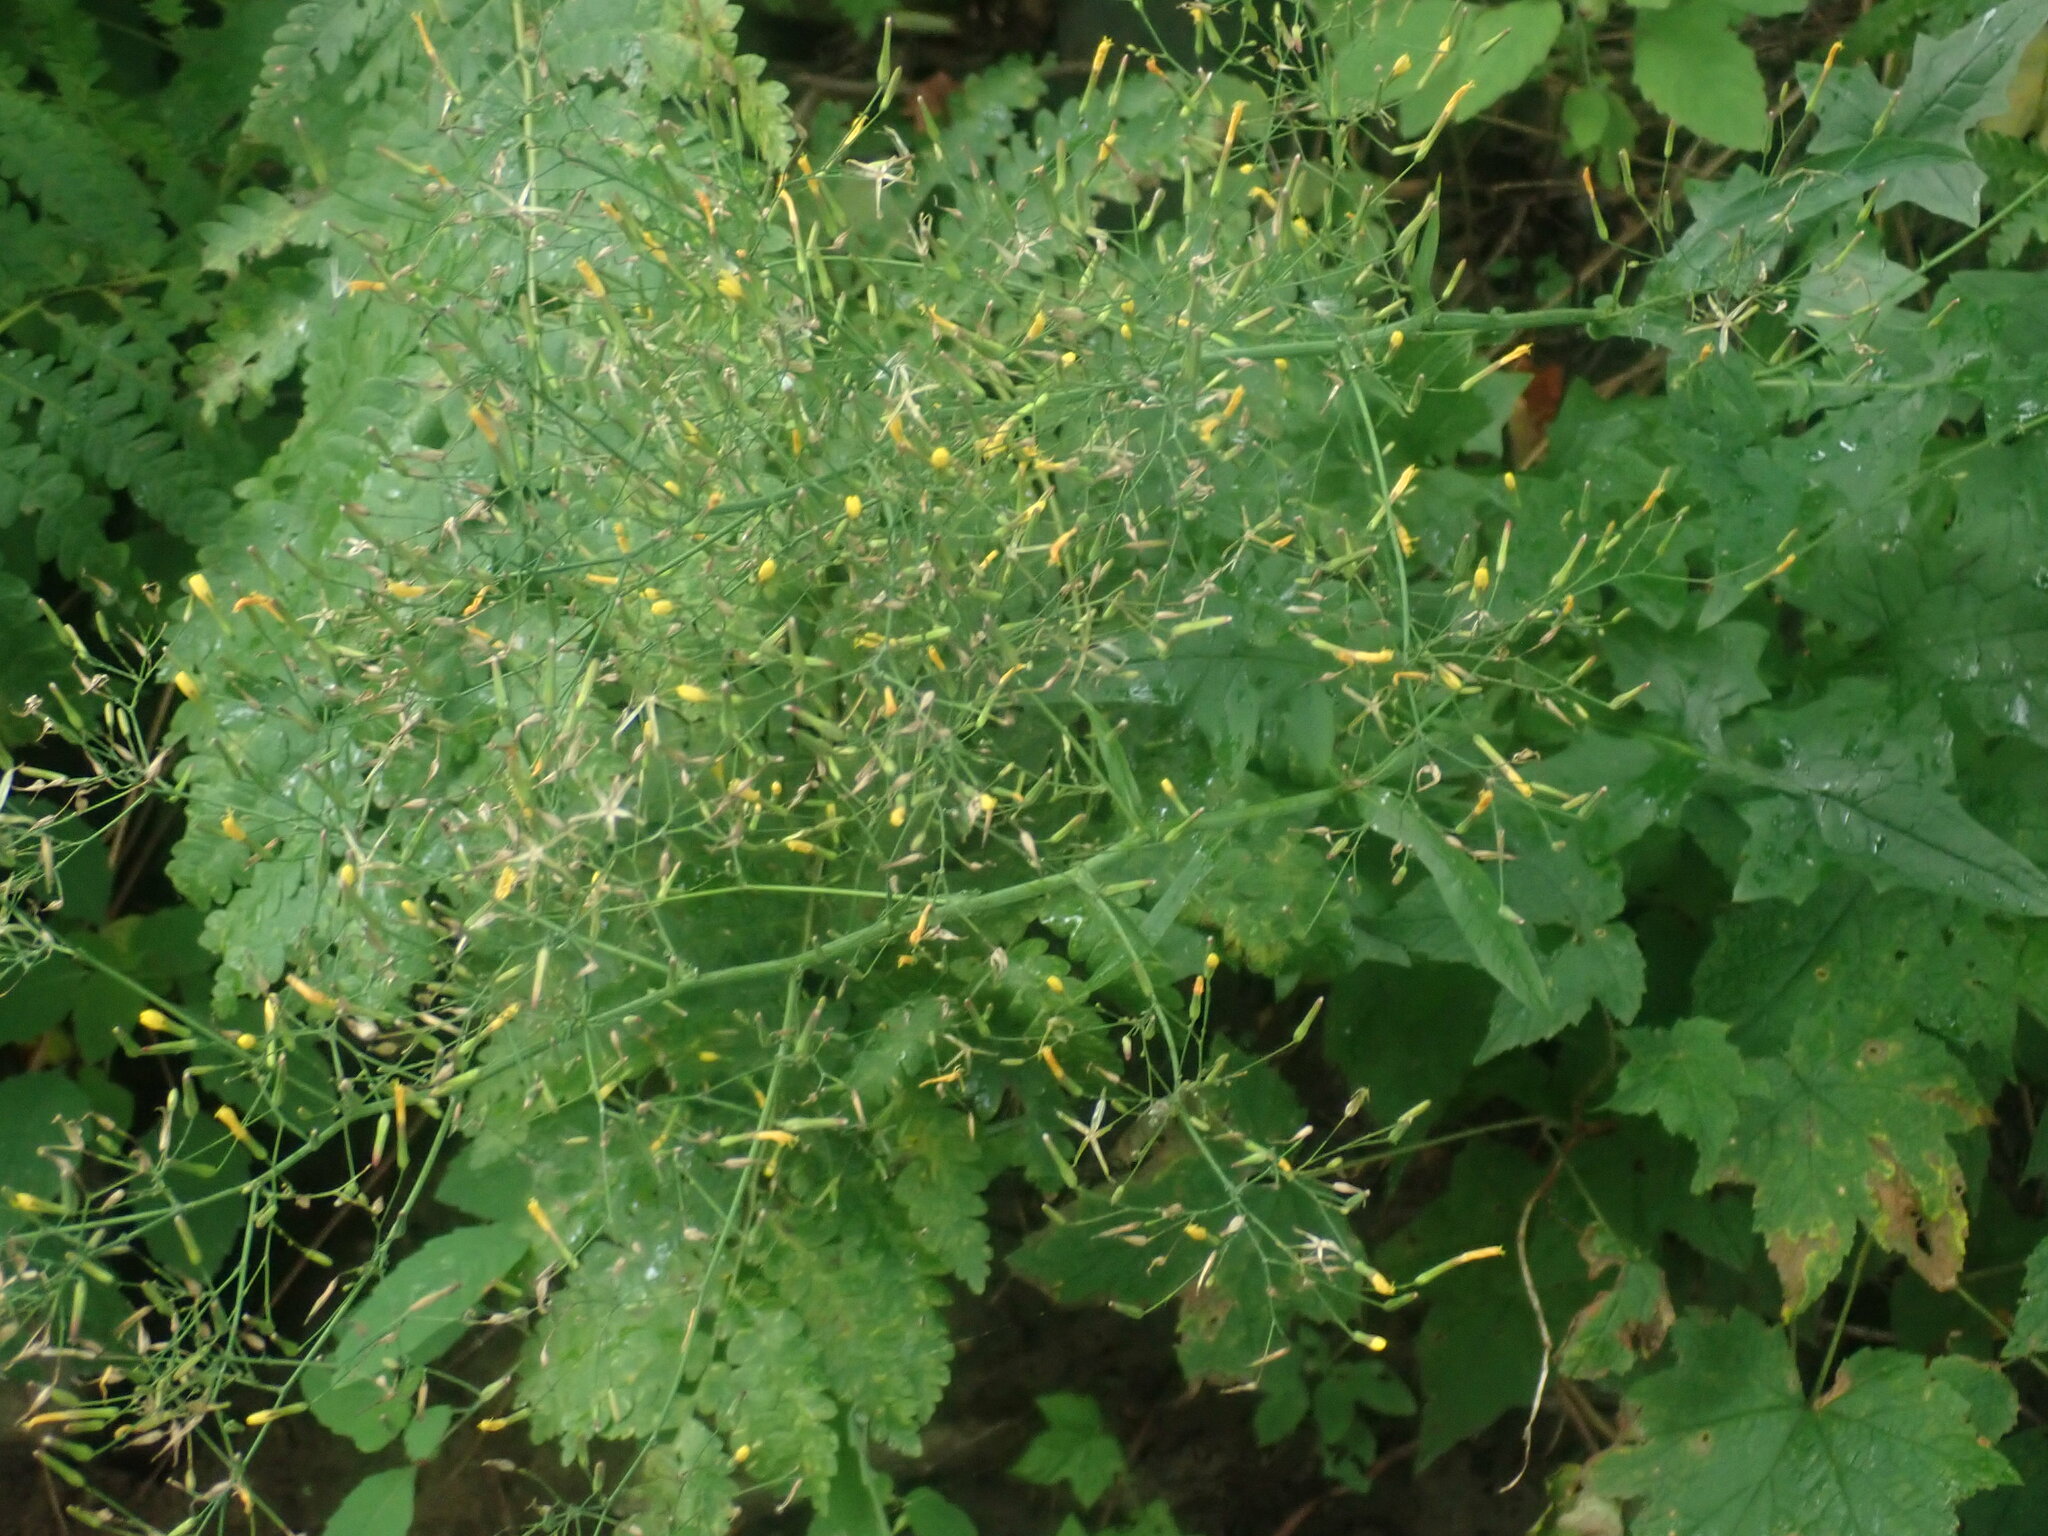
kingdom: Plantae
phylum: Tracheophyta
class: Magnoliopsida
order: Asterales
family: Asteraceae
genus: Mycelis
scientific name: Mycelis muralis
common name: Wall lettuce
